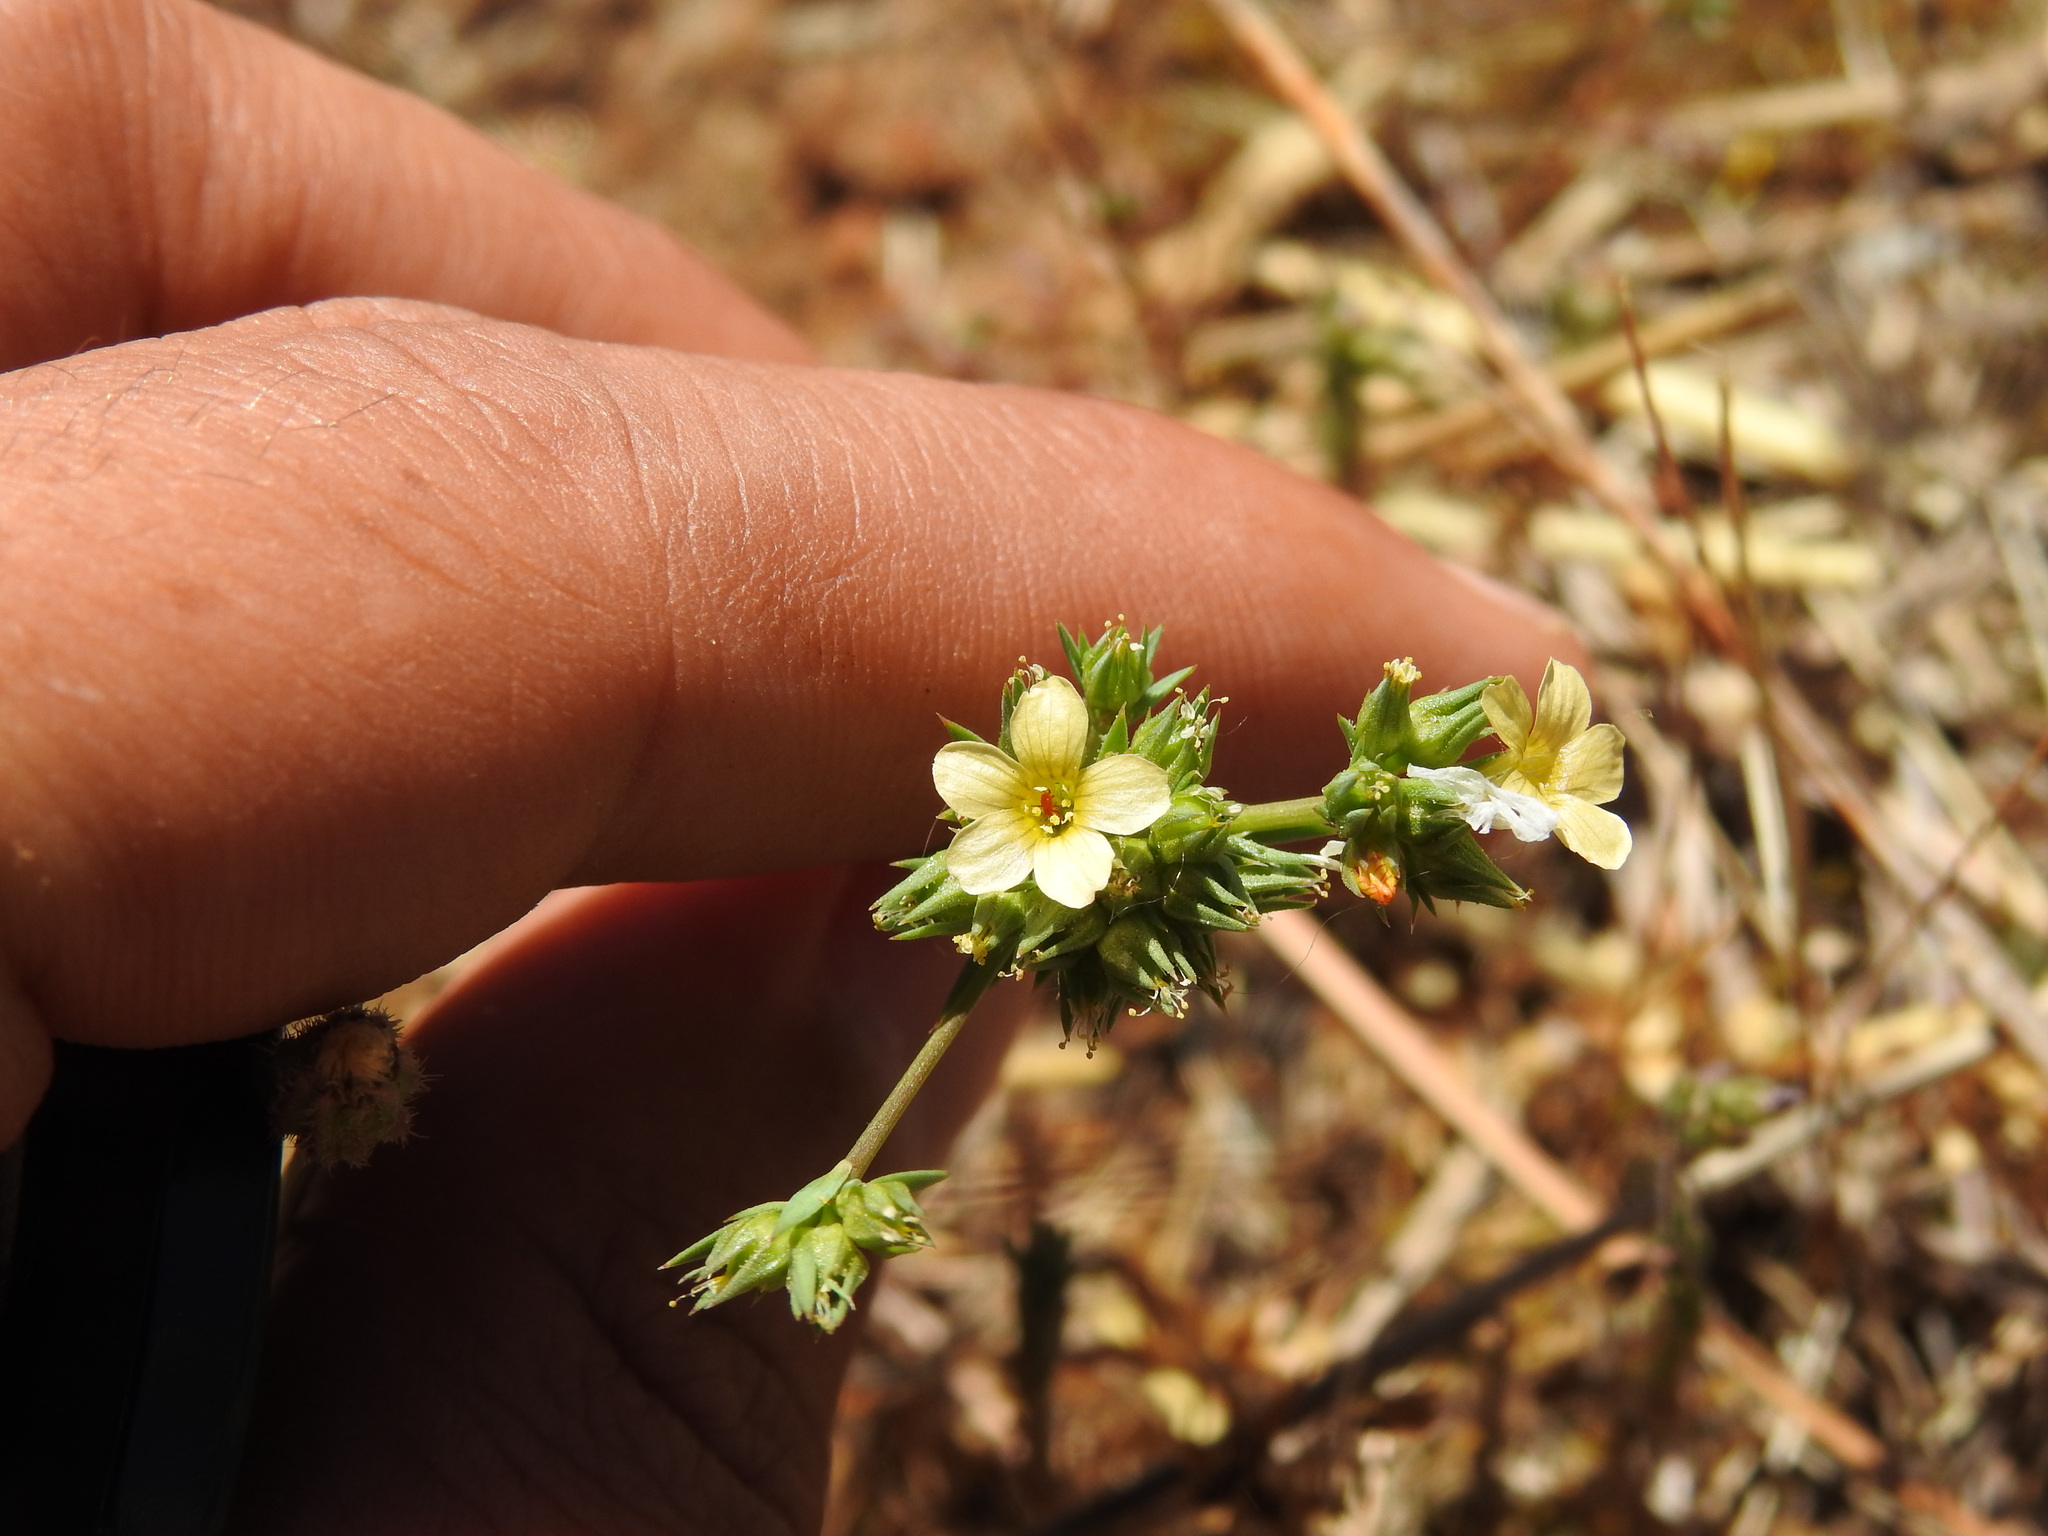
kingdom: Plantae
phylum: Tracheophyta
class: Magnoliopsida
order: Malpighiales
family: Linaceae
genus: Linum
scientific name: Linum strictum
